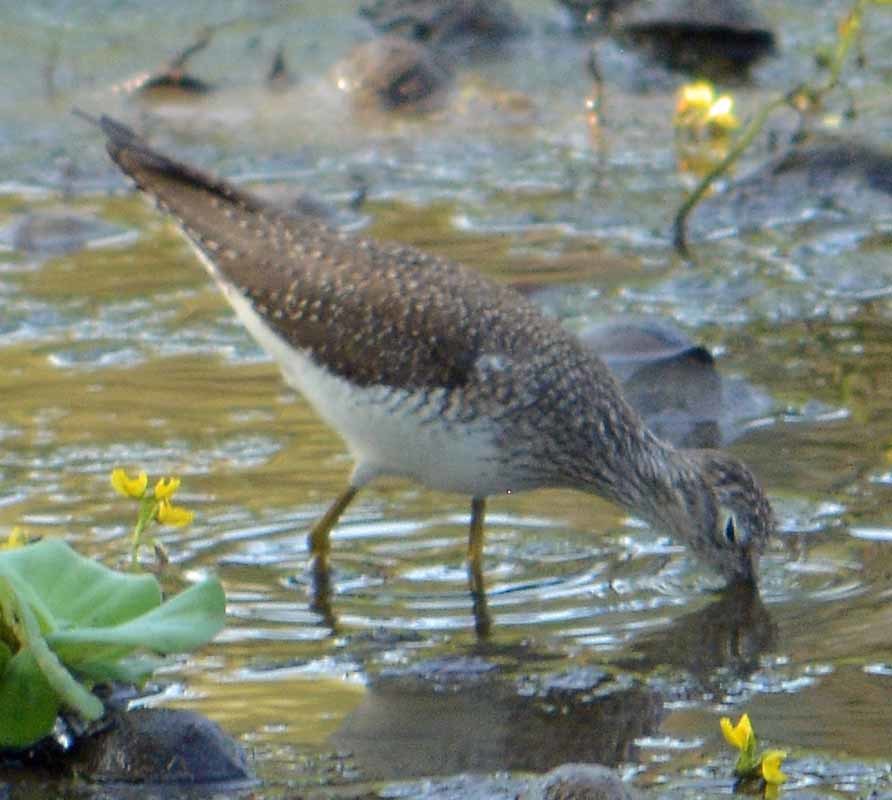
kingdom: Animalia
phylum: Chordata
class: Aves
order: Charadriiformes
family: Scolopacidae
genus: Tringa
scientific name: Tringa solitaria
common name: Solitary sandpiper
